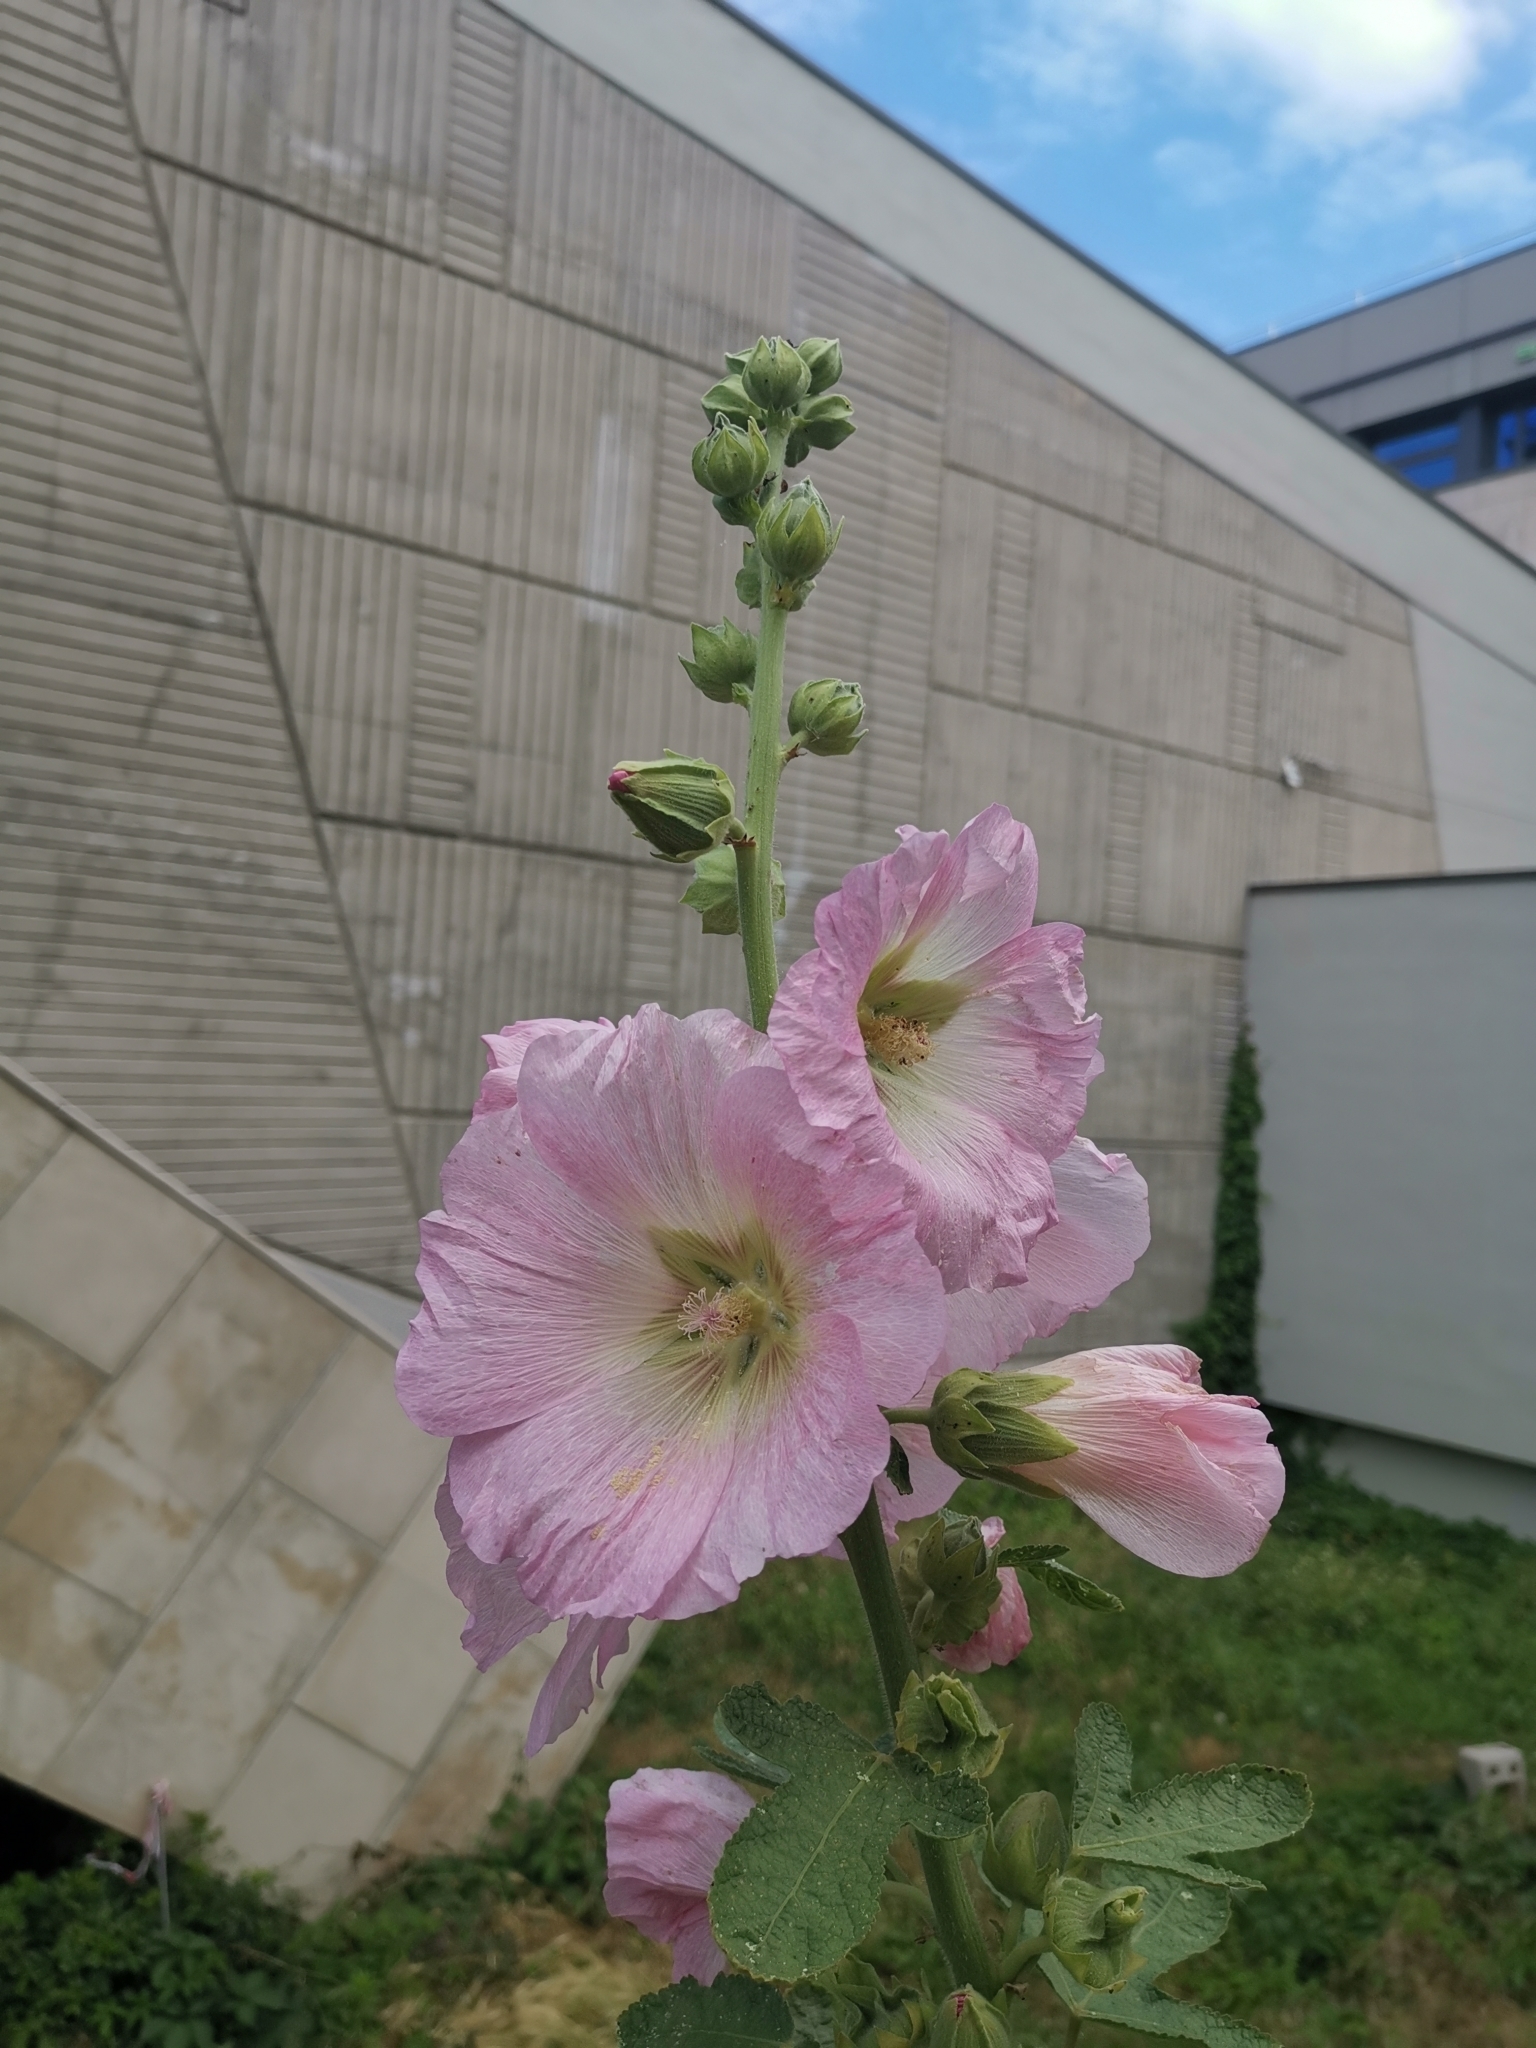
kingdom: Plantae
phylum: Tracheophyta
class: Magnoliopsida
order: Malvales
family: Malvaceae
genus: Alcea
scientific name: Alcea rosea
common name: Hollyhock
